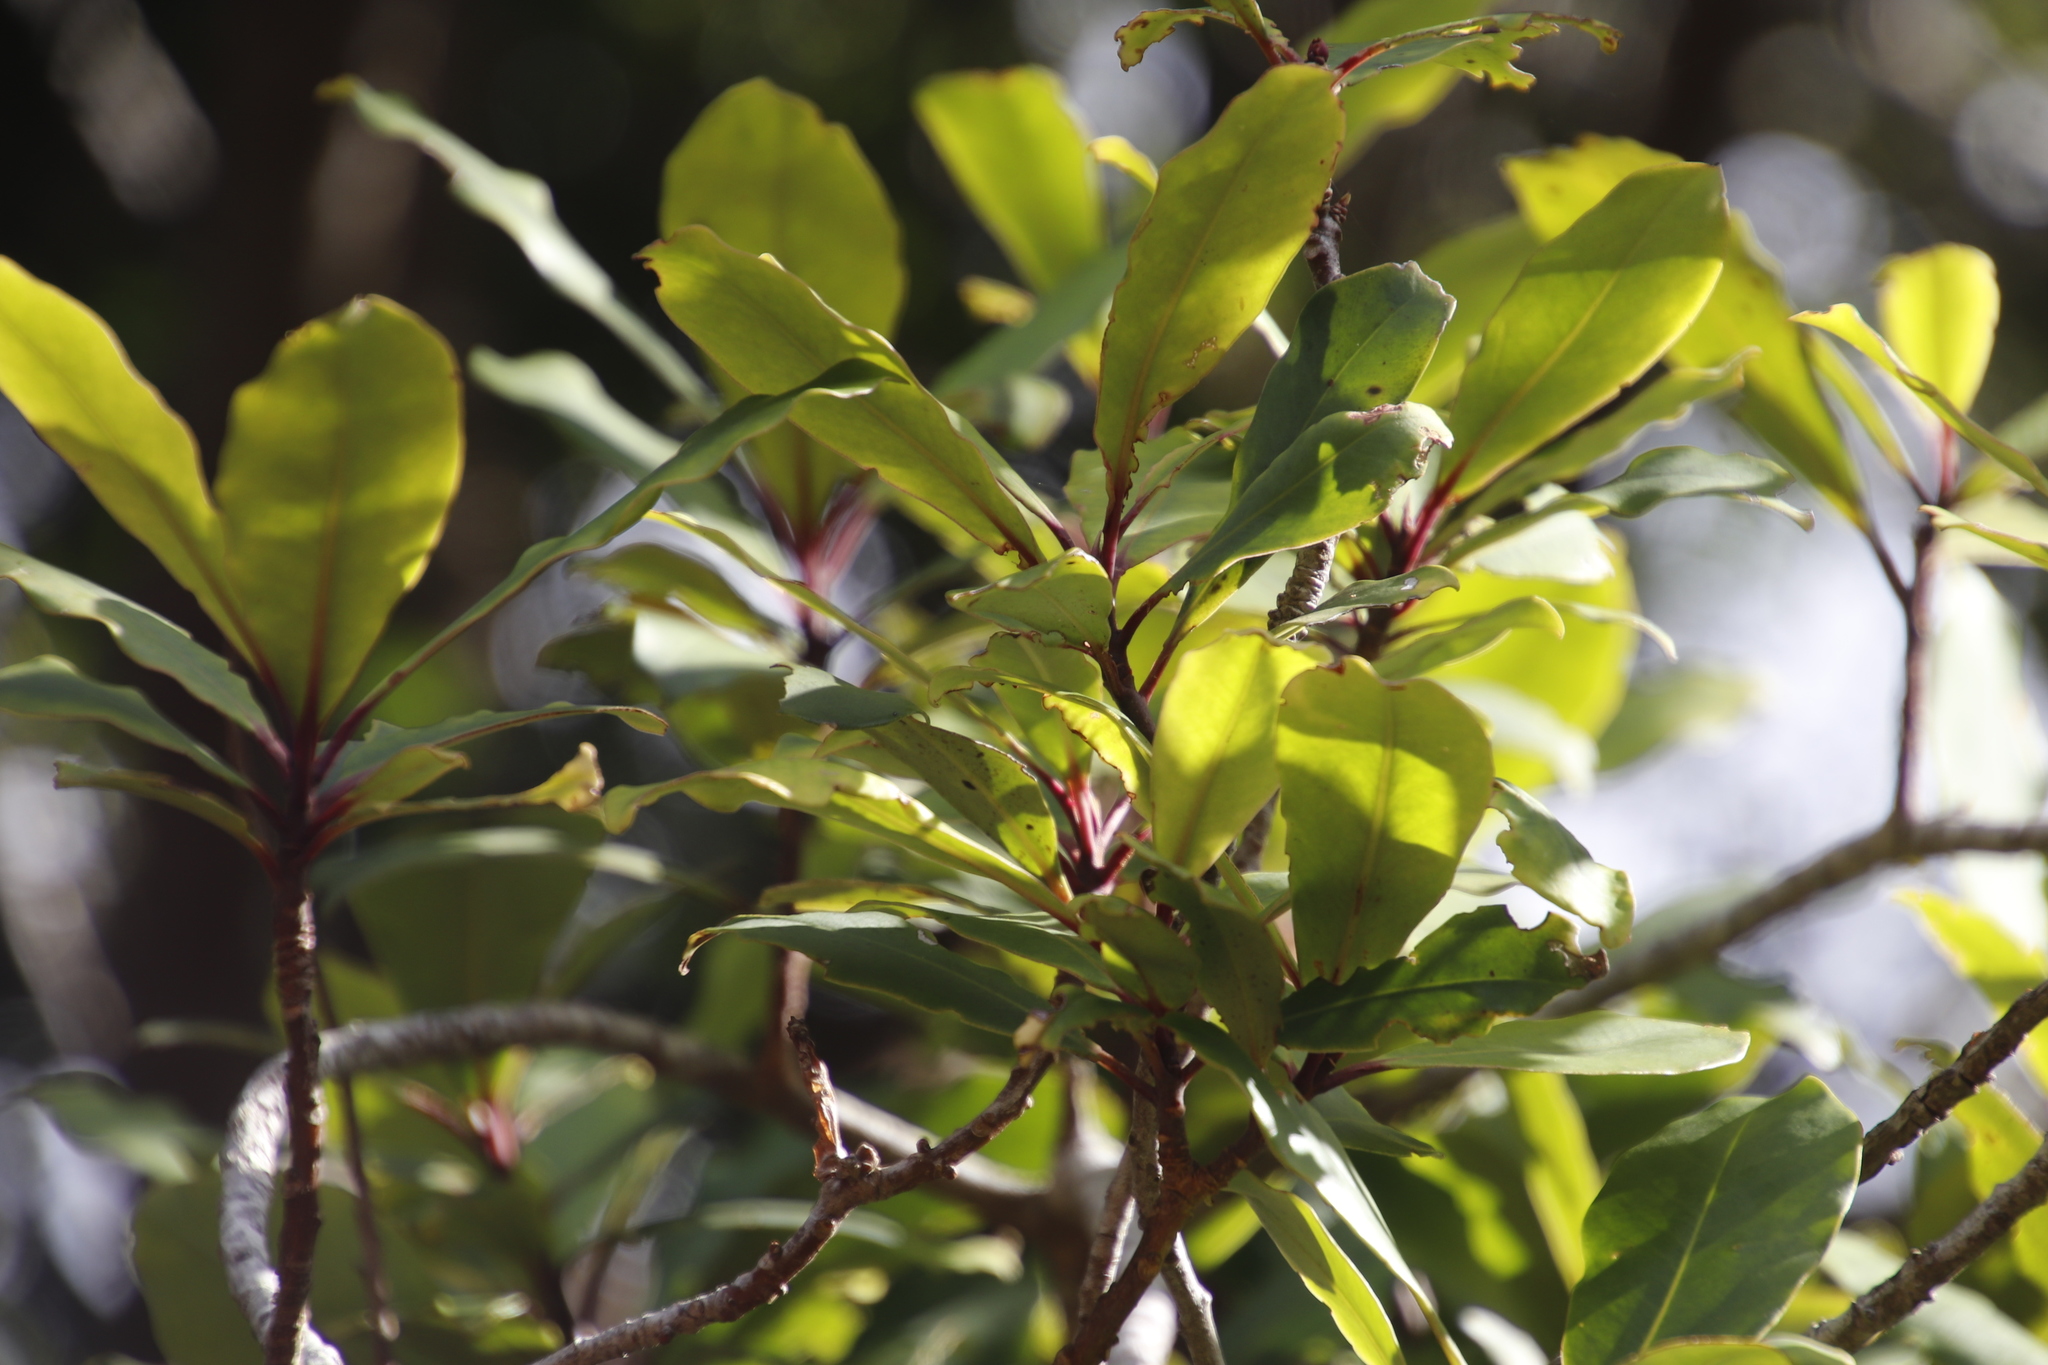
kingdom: Plantae
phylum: Tracheophyta
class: Magnoliopsida
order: Ericales
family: Primulaceae
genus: Myrsine
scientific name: Myrsine melanophloeos
